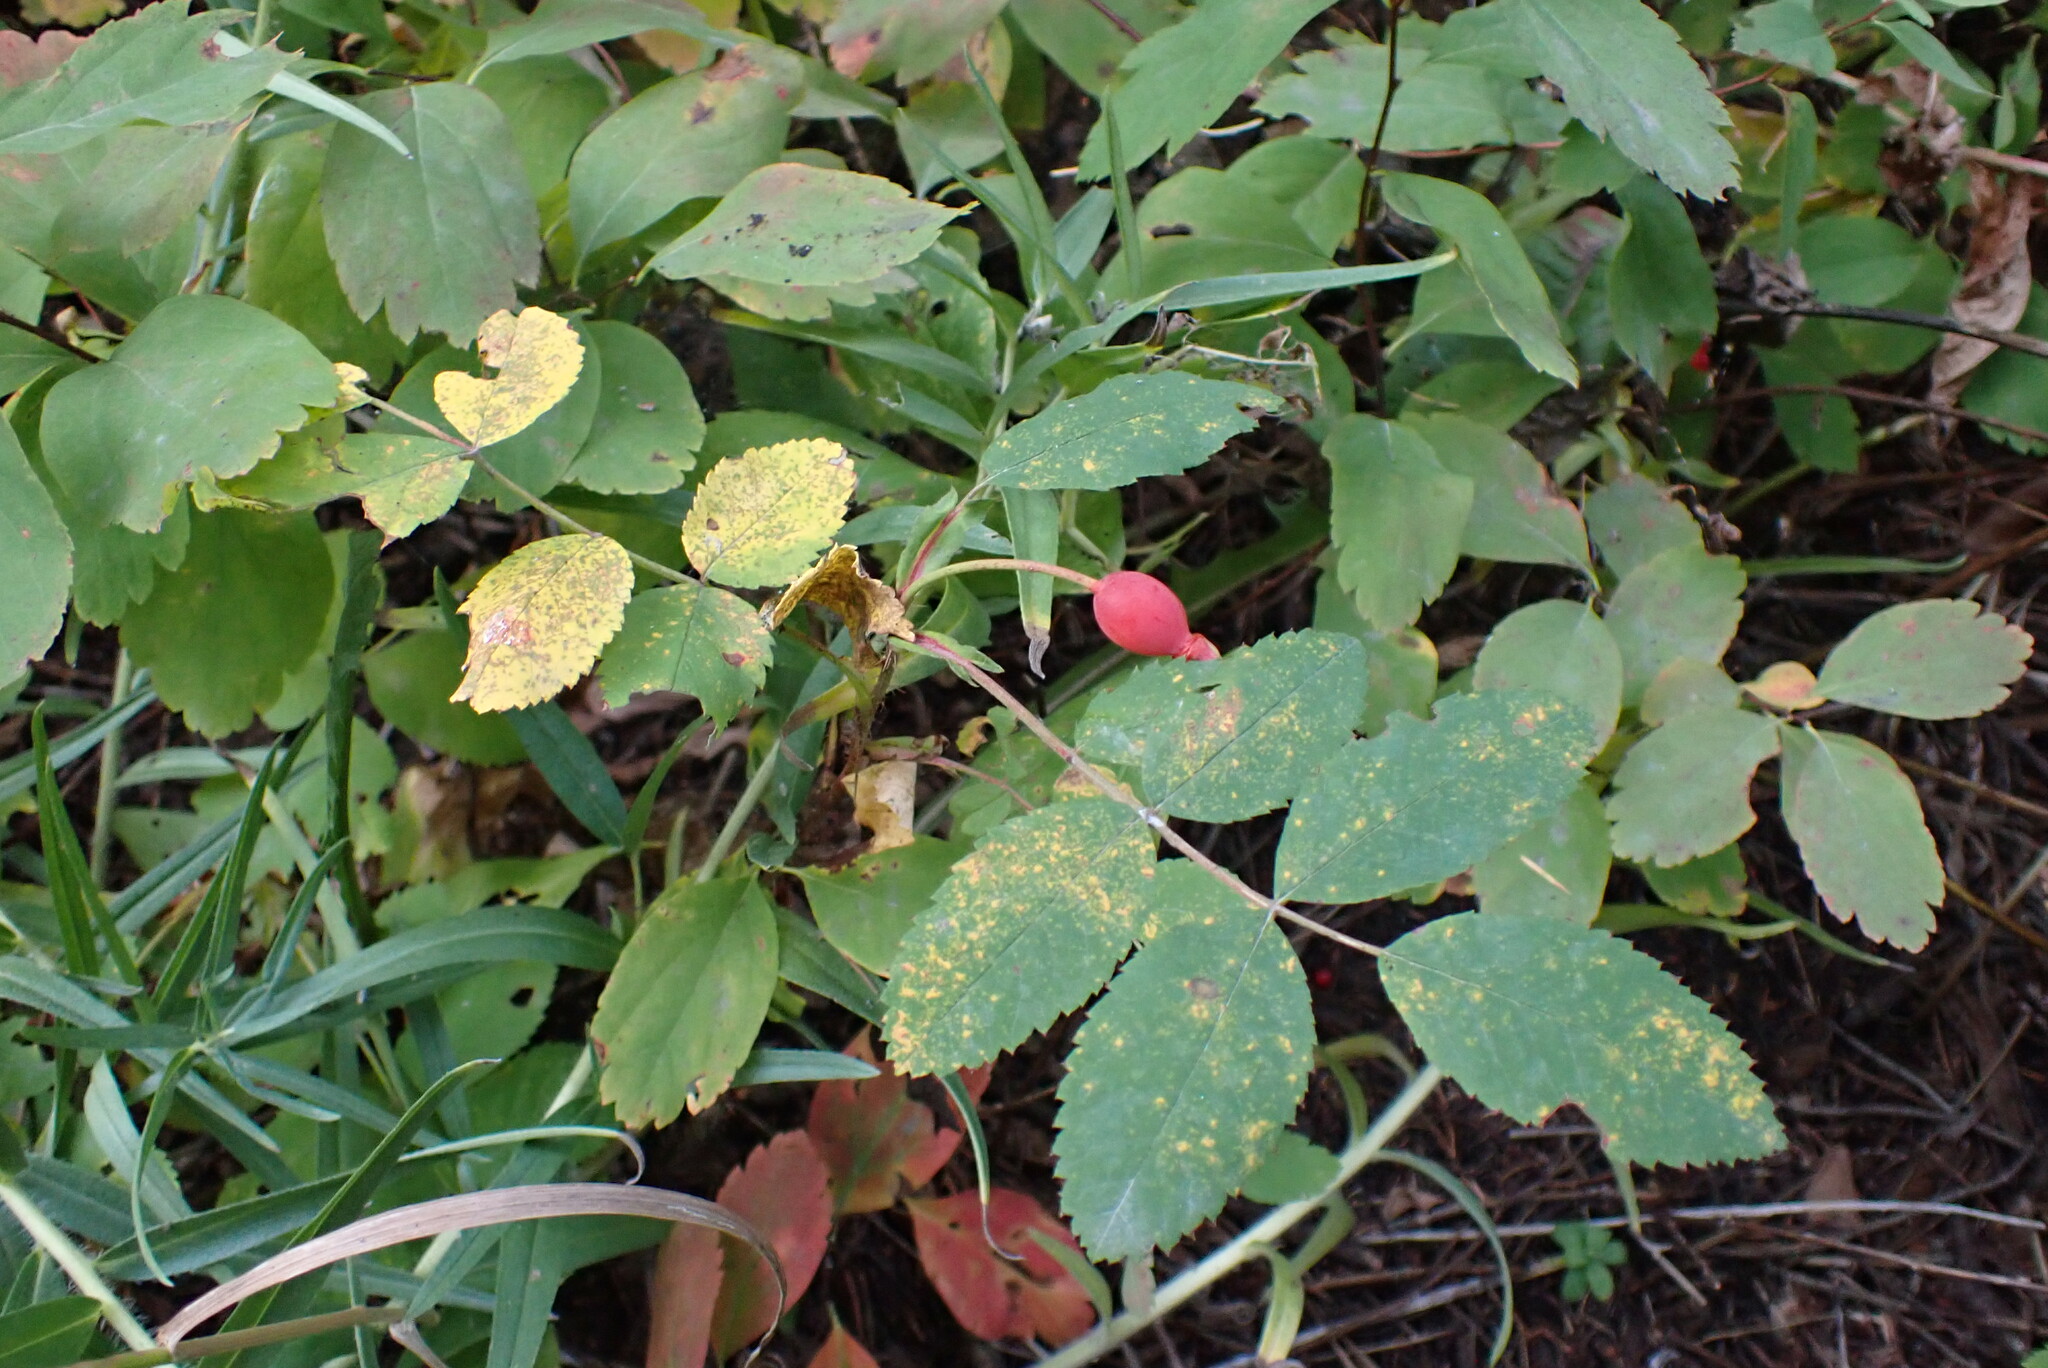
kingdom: Plantae
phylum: Tracheophyta
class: Magnoliopsida
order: Rosales
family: Rosaceae
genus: Rosa
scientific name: Rosa acicularis
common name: Prickly rose
